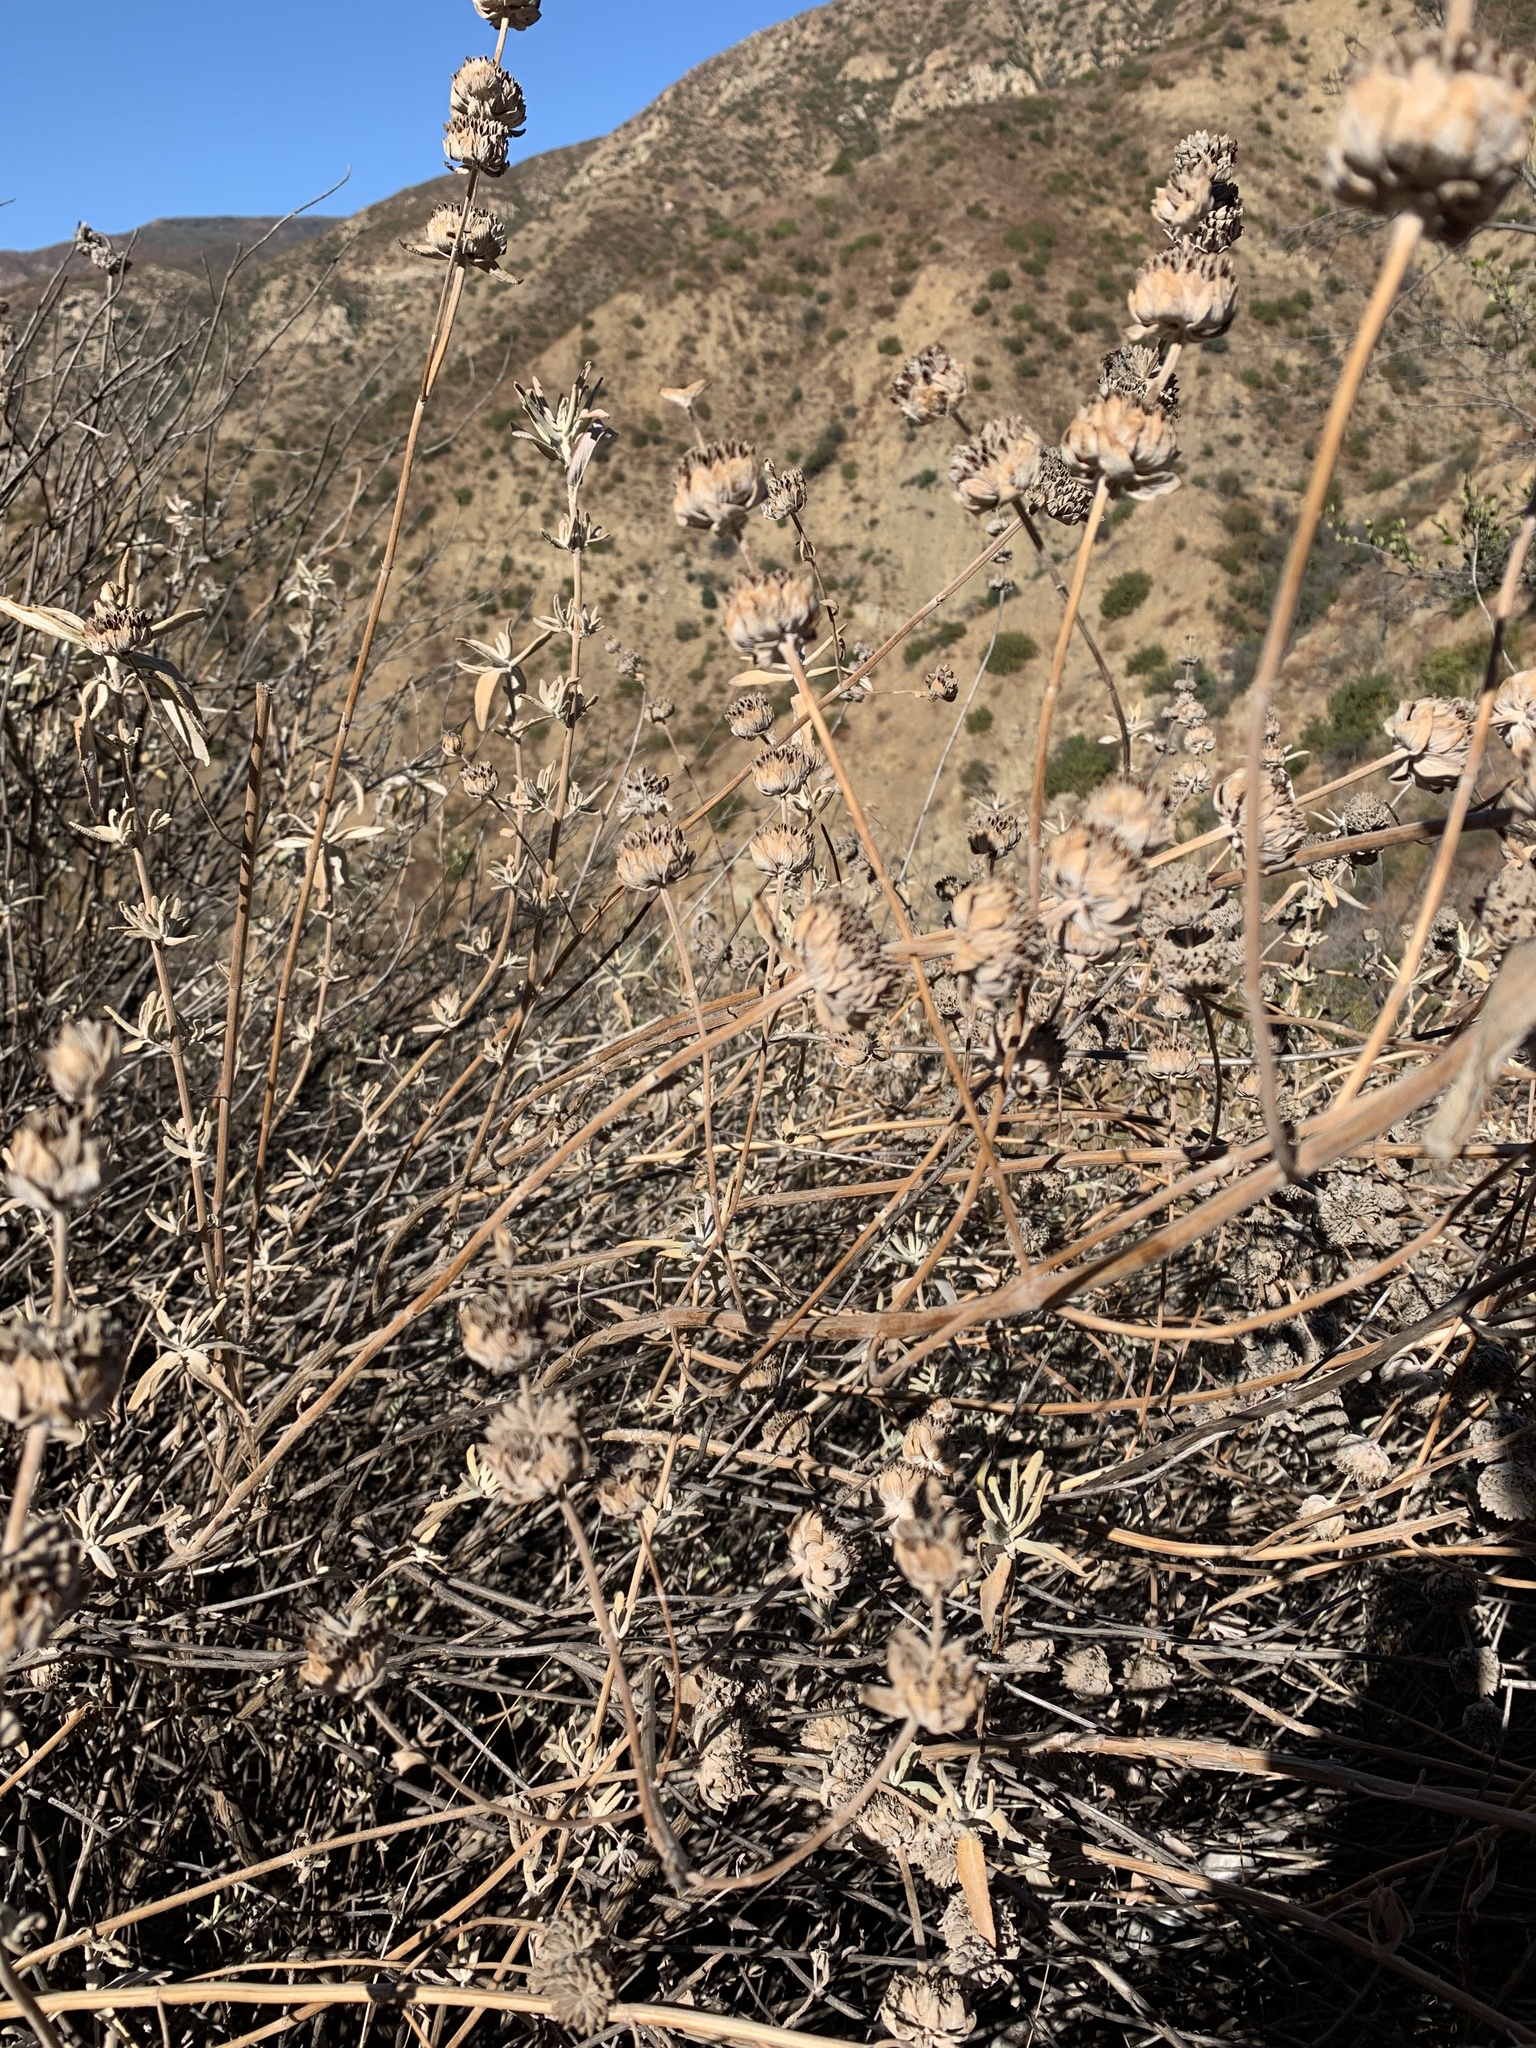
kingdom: Plantae
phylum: Tracheophyta
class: Magnoliopsida
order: Lamiales
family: Lamiaceae
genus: Salvia
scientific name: Salvia leucophylla
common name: Purple sage
